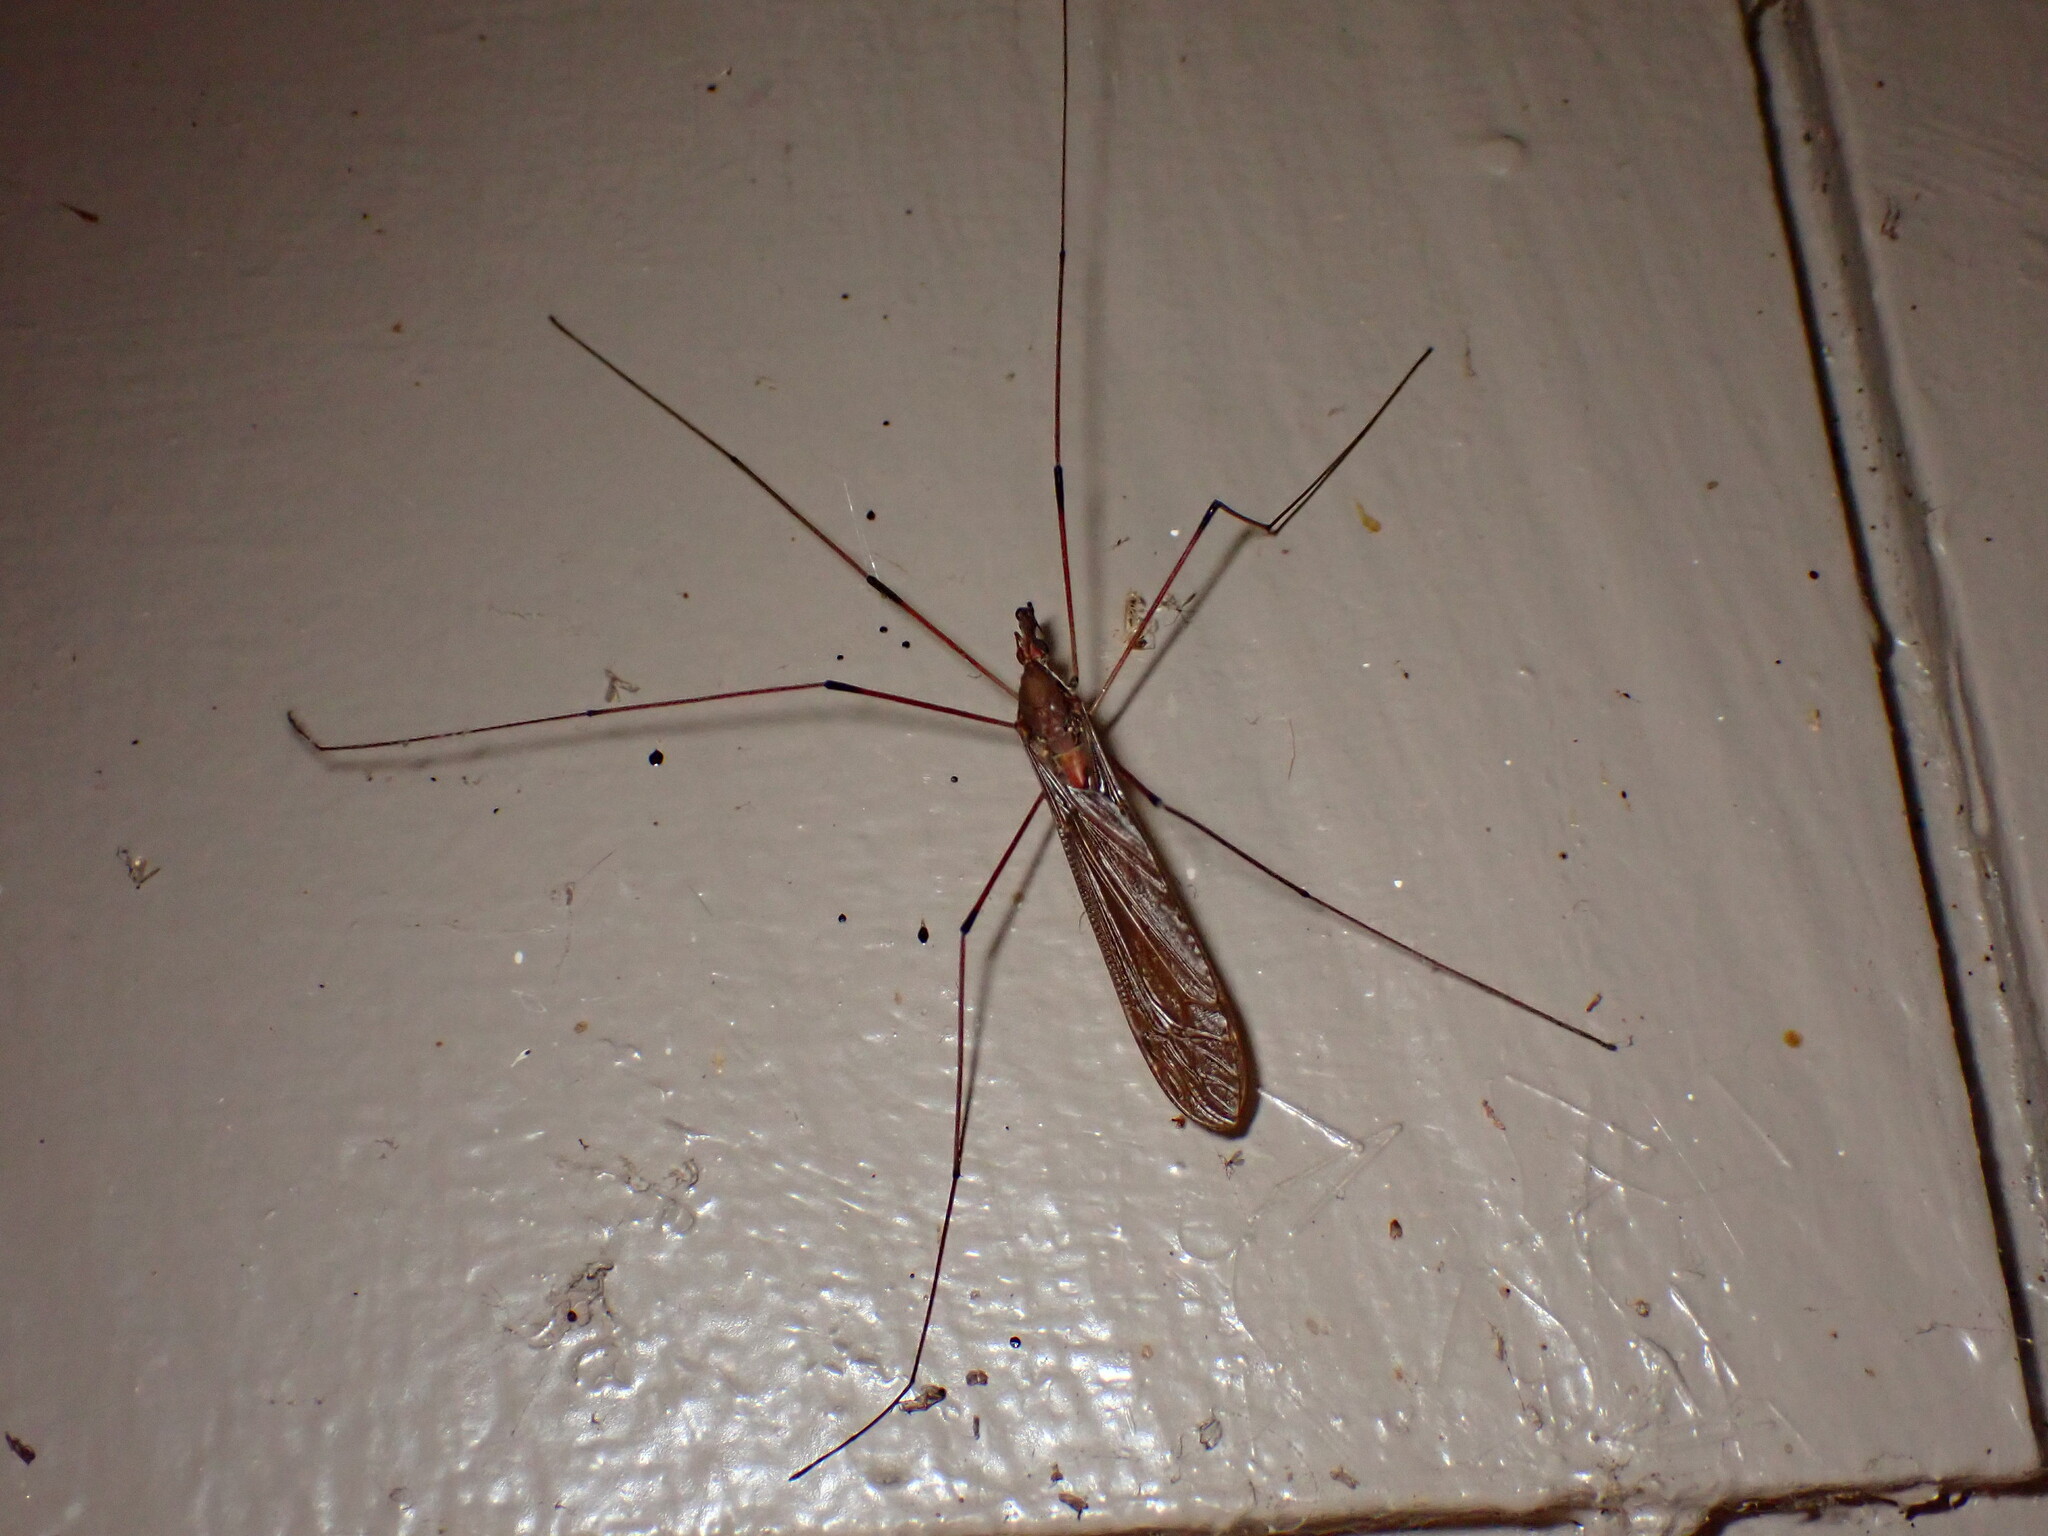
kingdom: Animalia
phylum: Arthropoda
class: Insecta
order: Diptera
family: Tipulidae
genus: Holorusia
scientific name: Holorusia hespera
